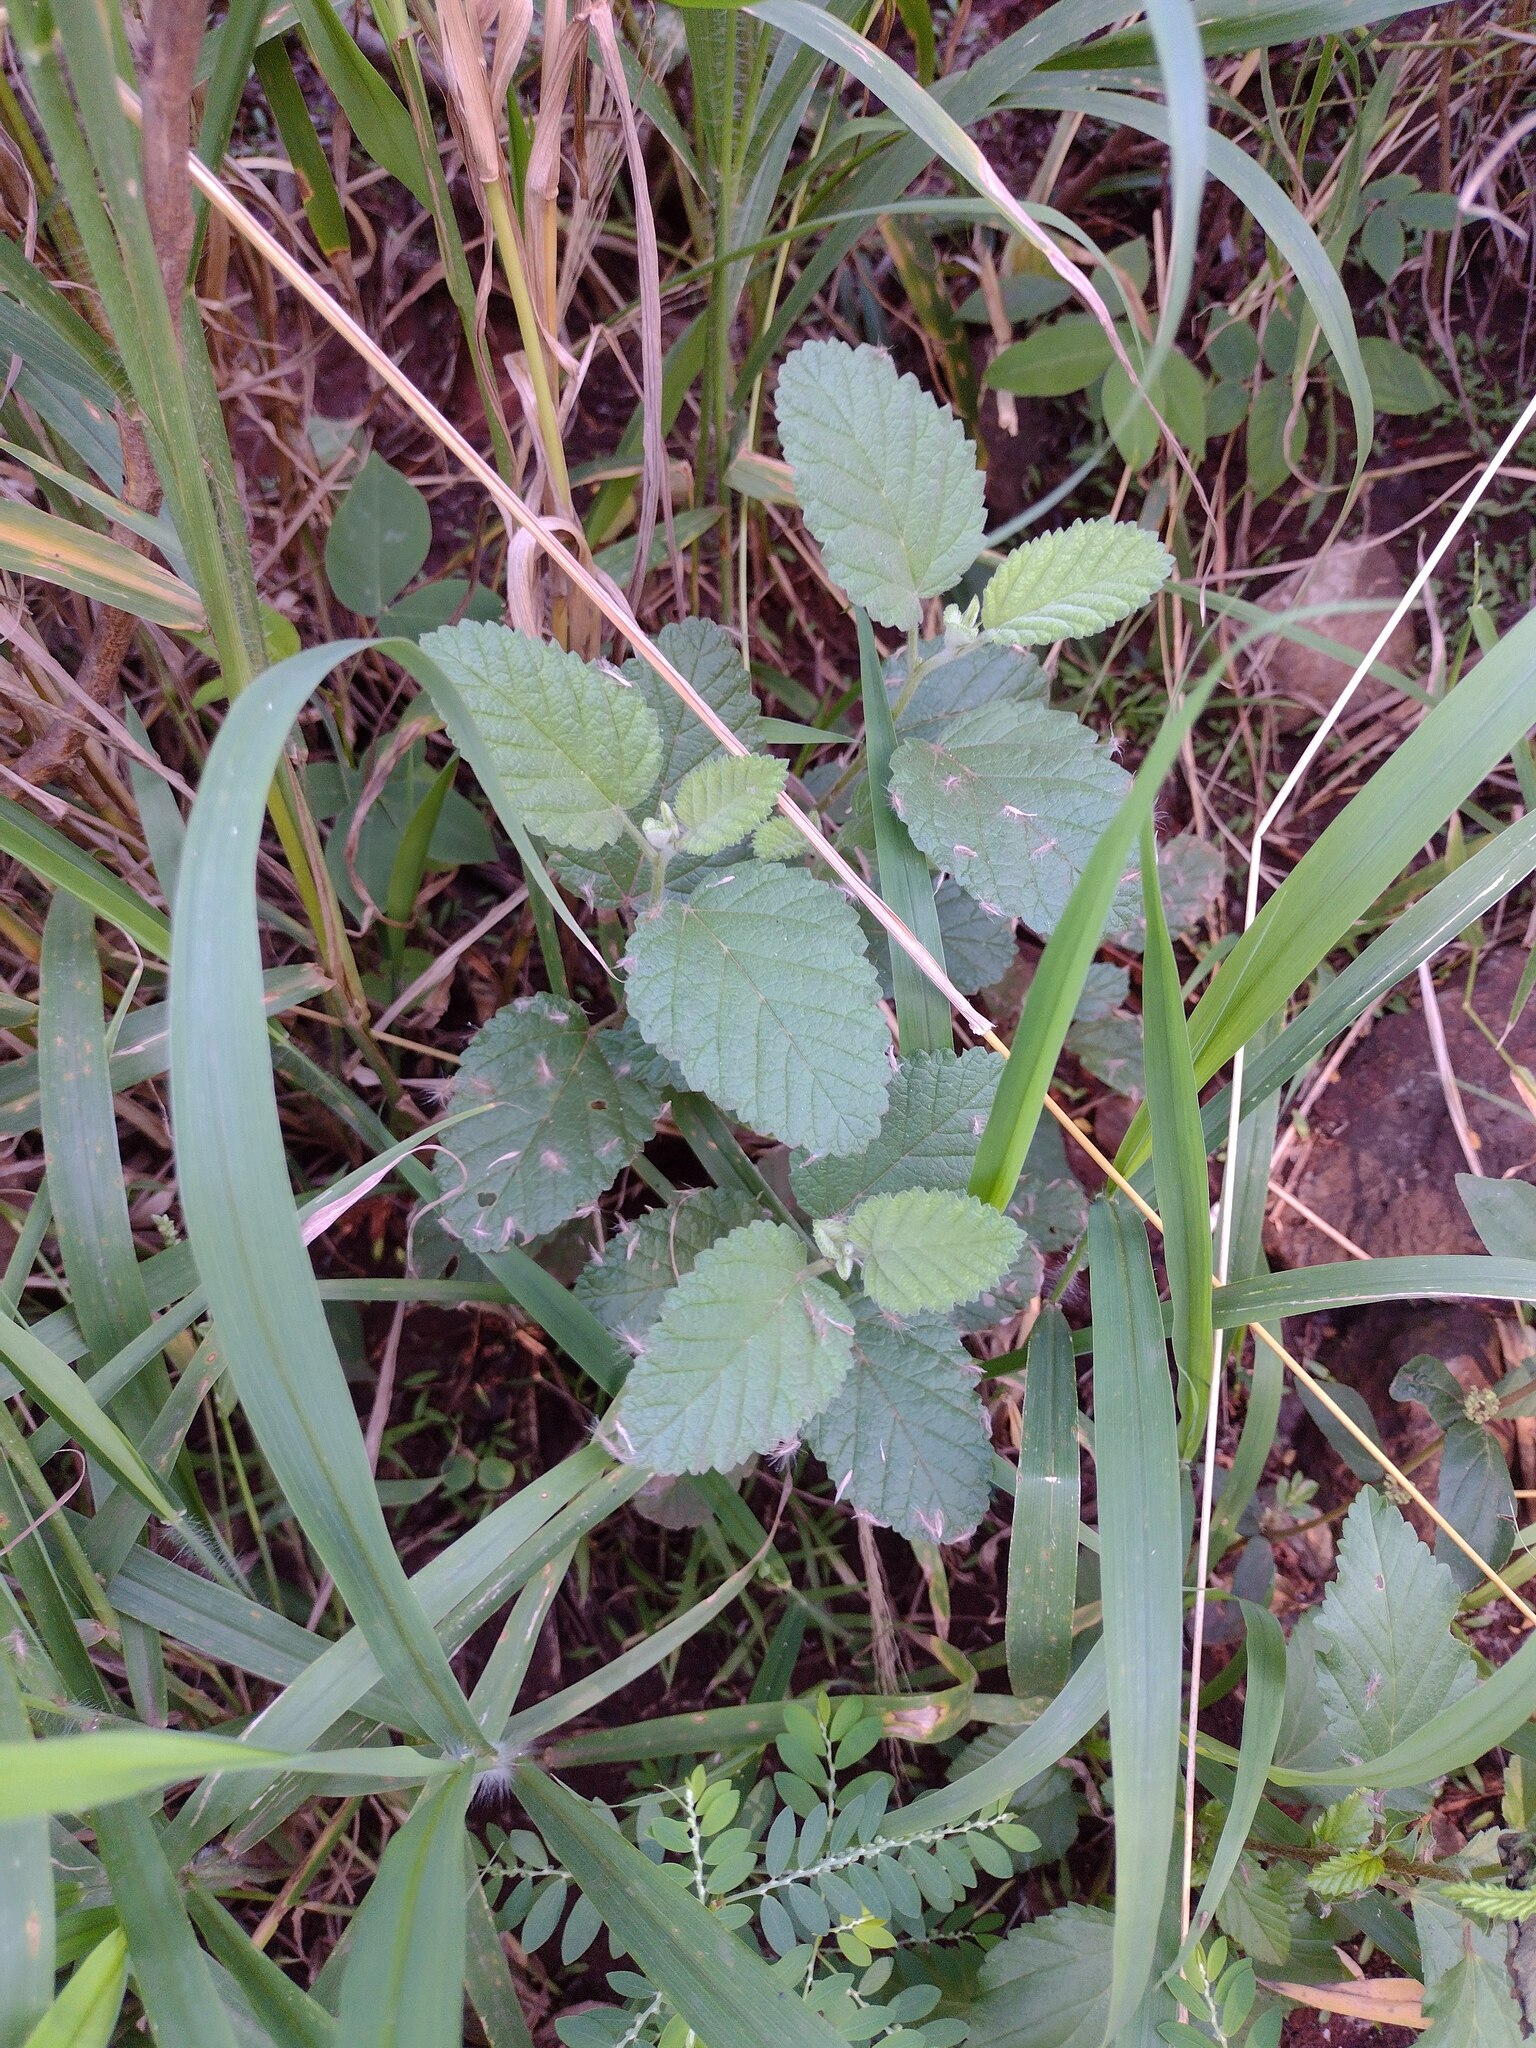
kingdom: Plantae
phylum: Tracheophyta
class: Magnoliopsida
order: Malvales
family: Malvaceae
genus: Waltheria
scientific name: Waltheria indica
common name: Leather-coat
